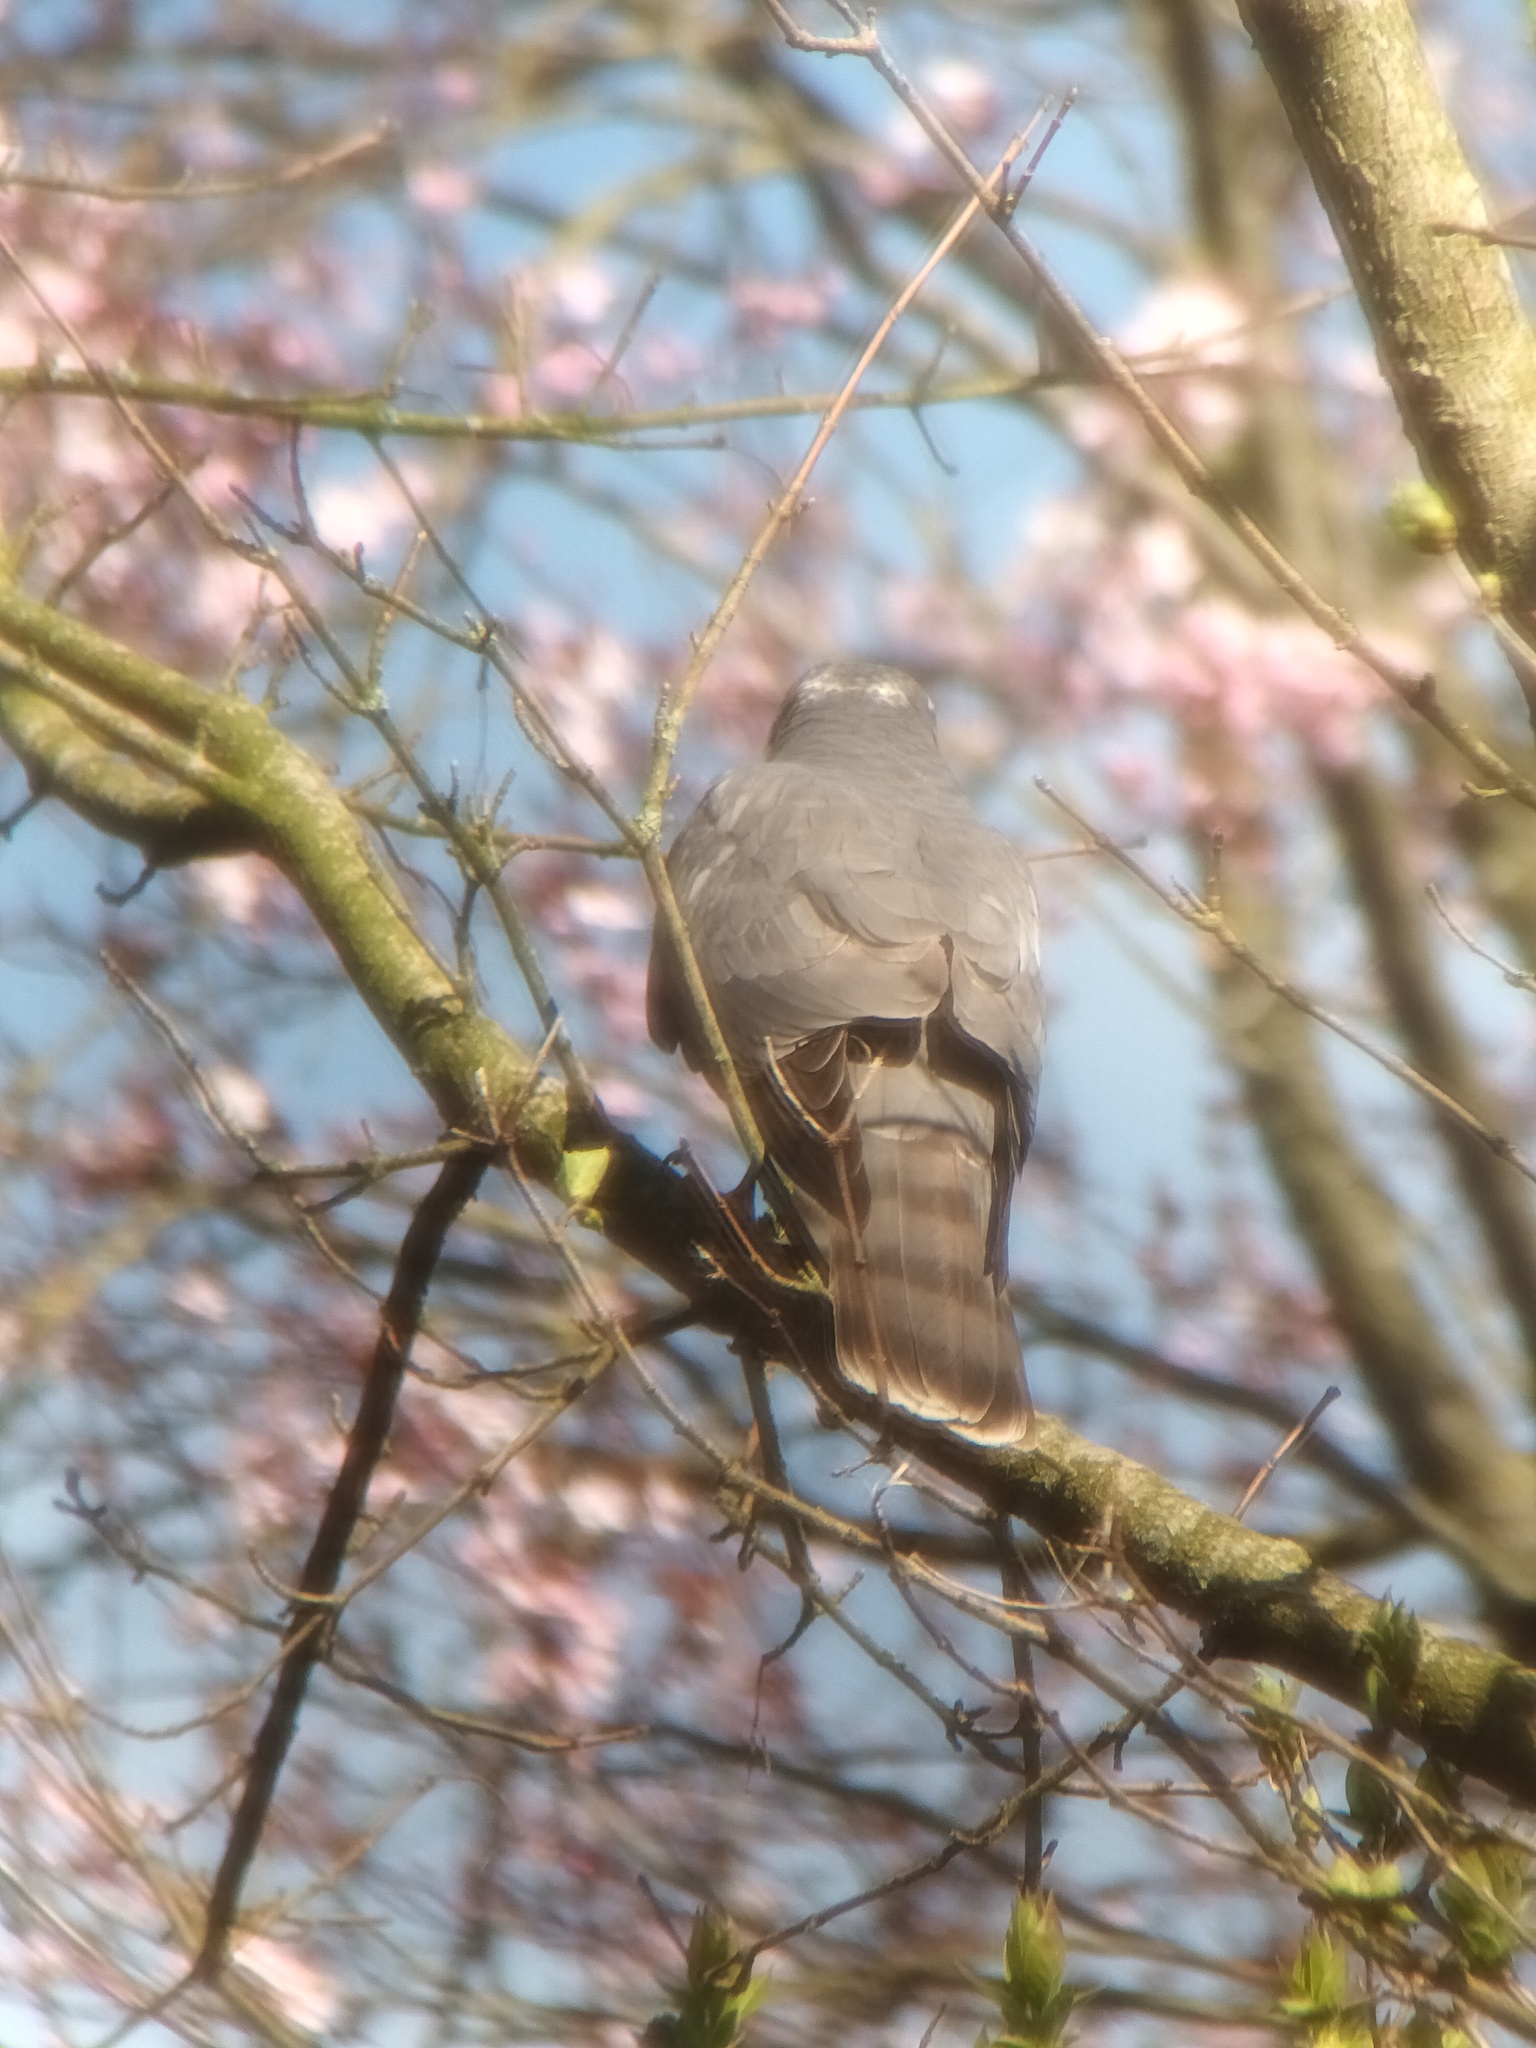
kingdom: Animalia
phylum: Chordata
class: Aves
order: Accipitriformes
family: Accipitridae
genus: Accipiter
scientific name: Accipiter nisus
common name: Eurasian sparrowhawk
